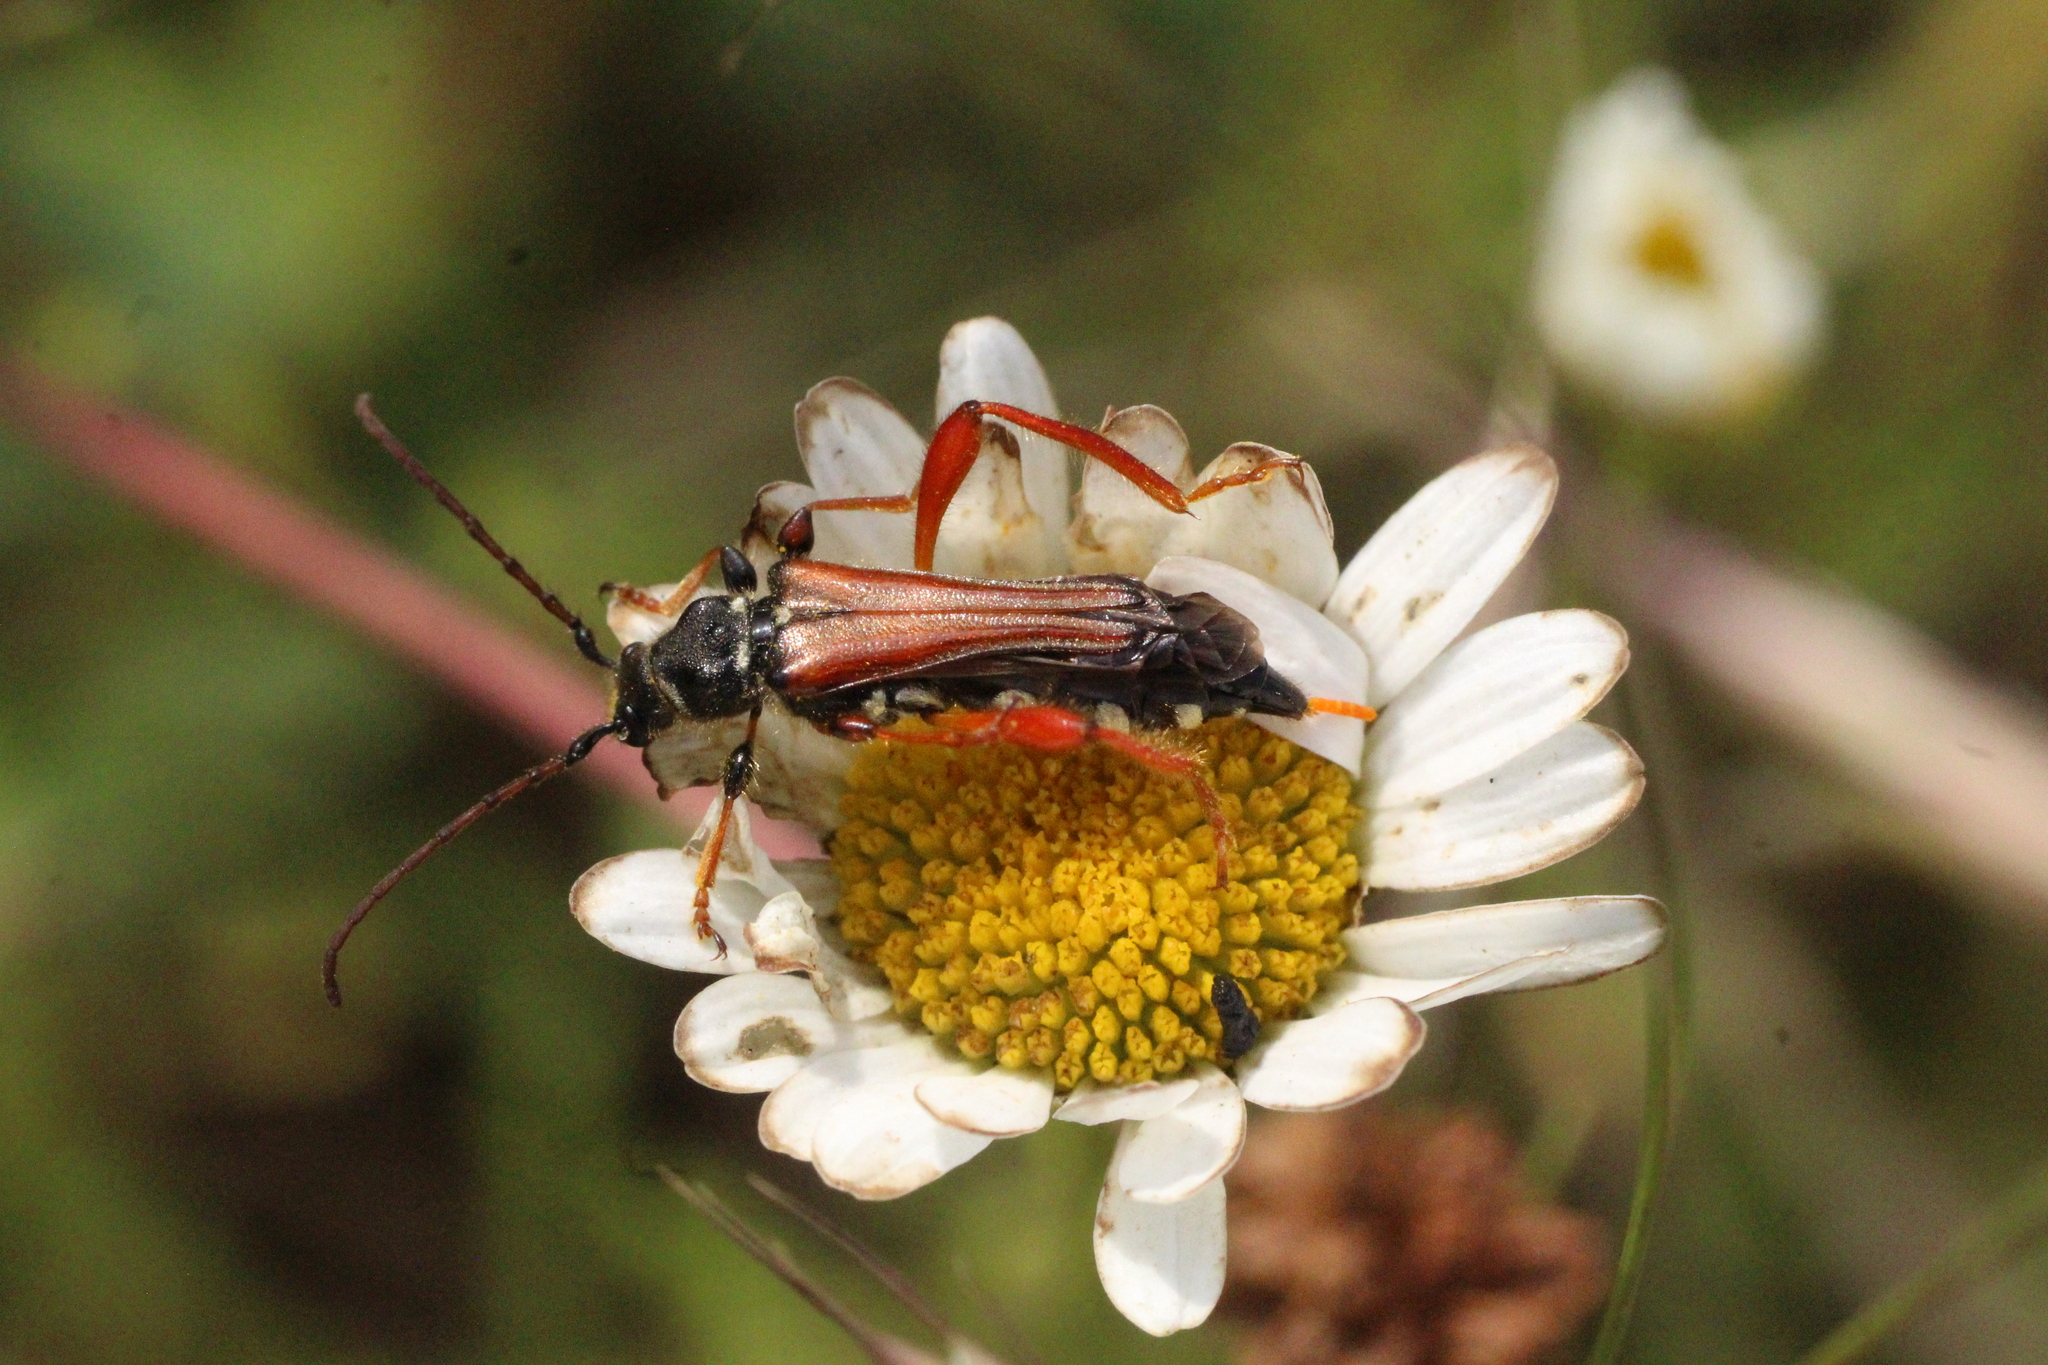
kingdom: Animalia
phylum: Arthropoda
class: Insecta
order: Coleoptera
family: Cerambycidae
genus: Stenopterus
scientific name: Stenopterus rufus
